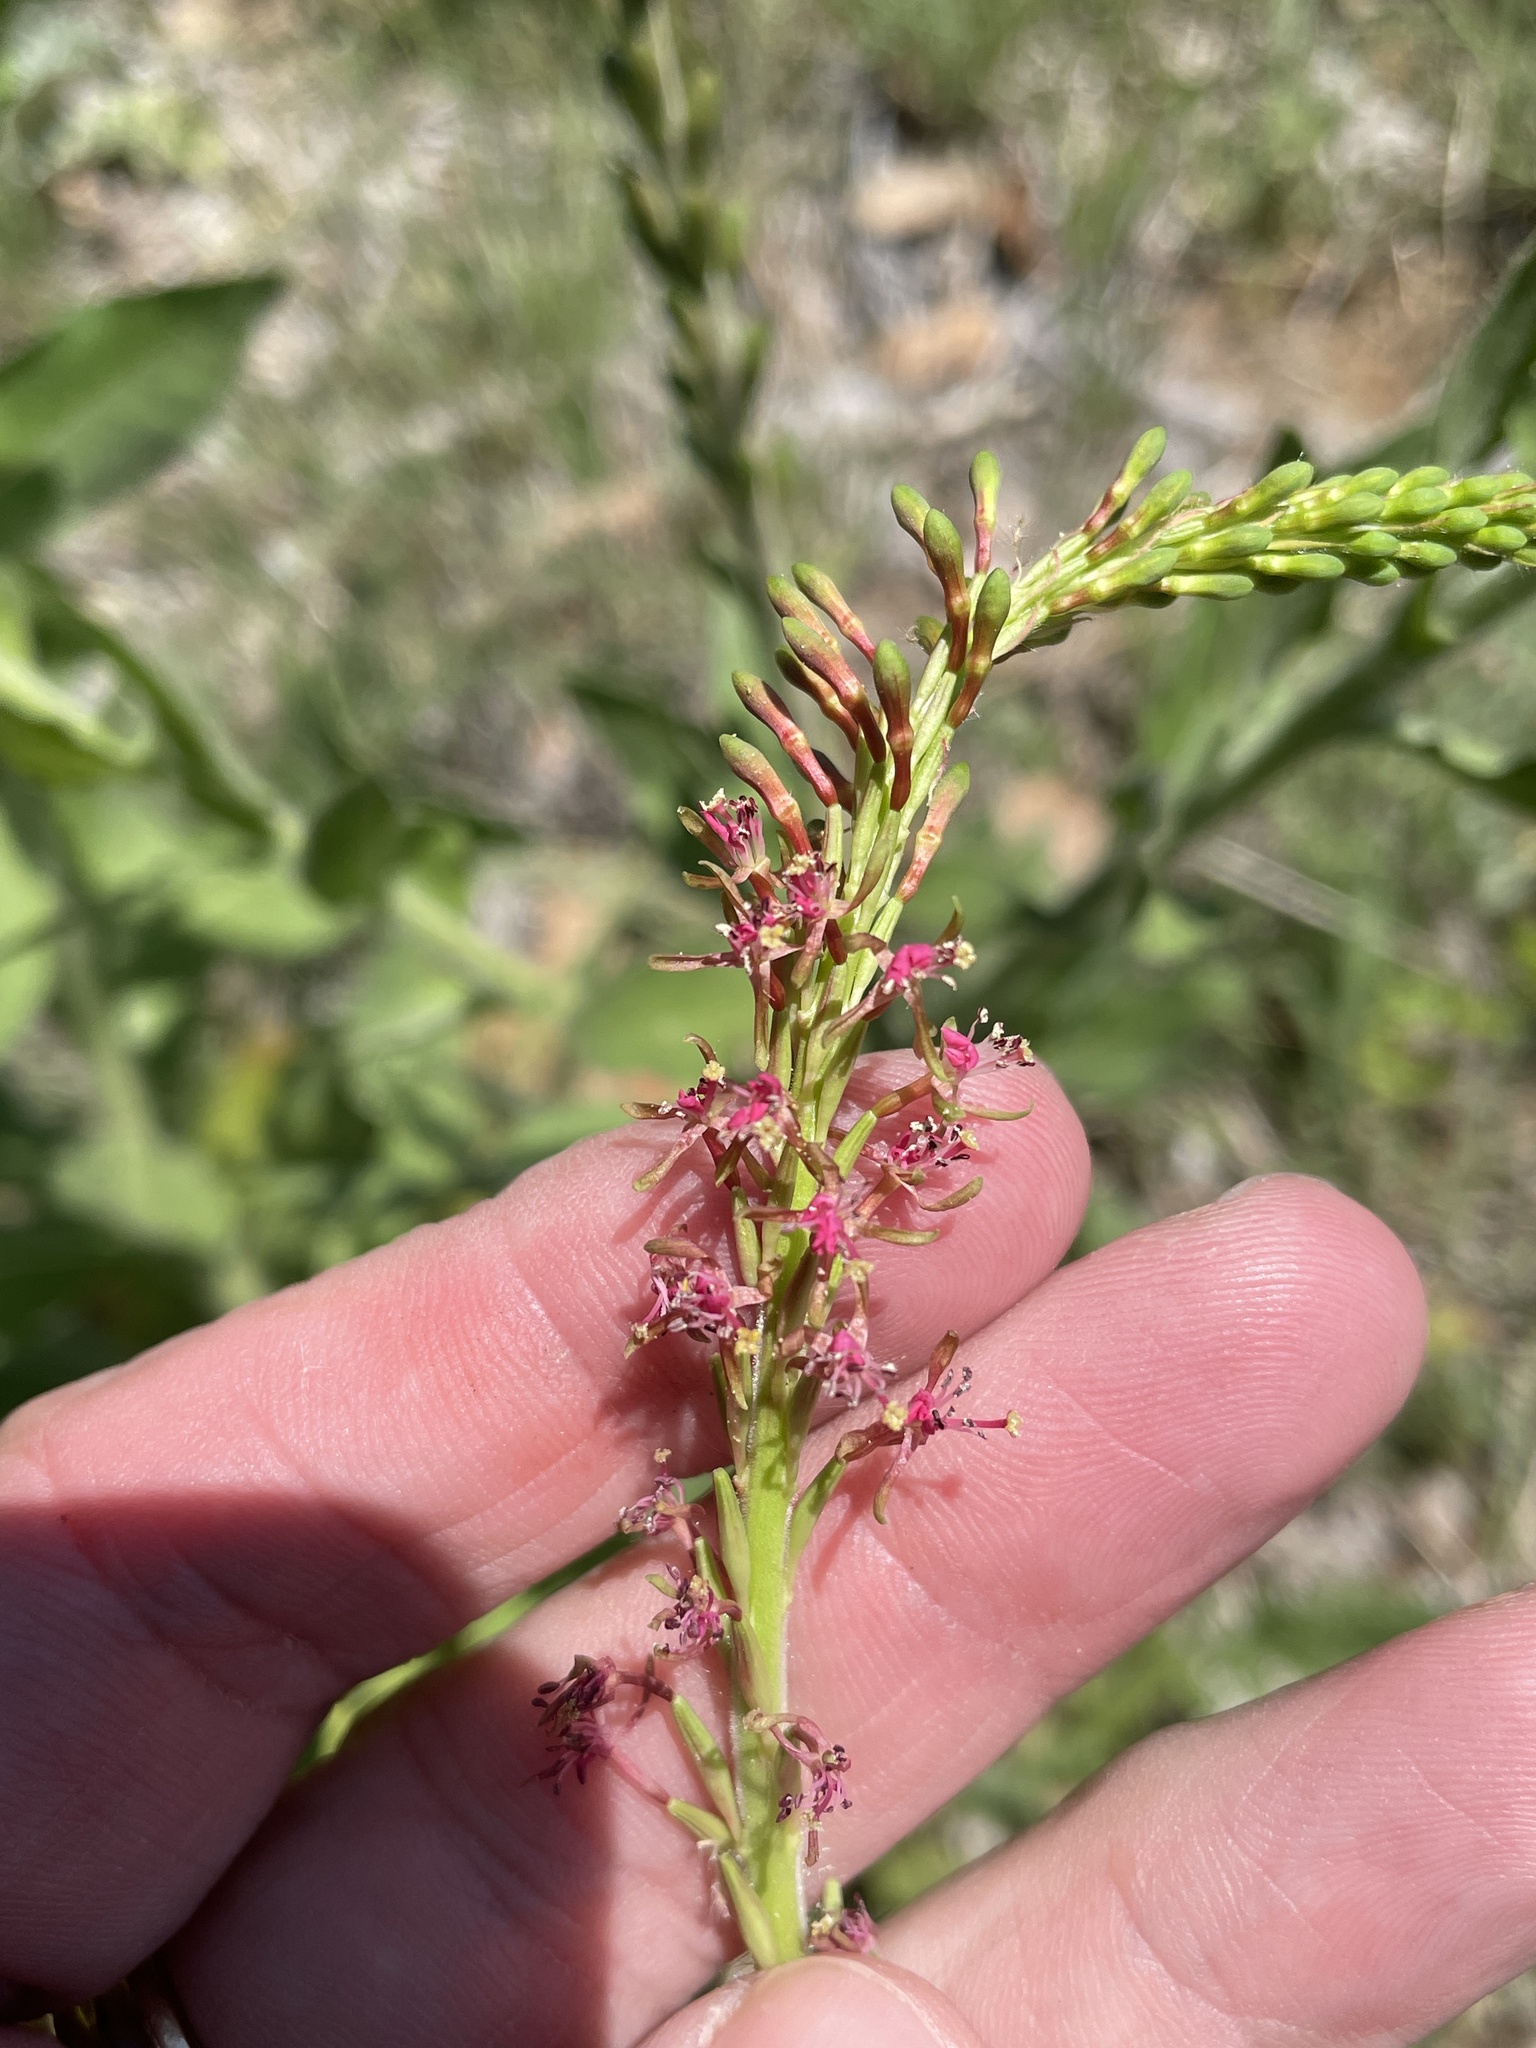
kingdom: Plantae
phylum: Tracheophyta
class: Magnoliopsida
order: Myrtales
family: Onagraceae
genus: Oenothera
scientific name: Oenothera curtiflora
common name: Velvetweed
